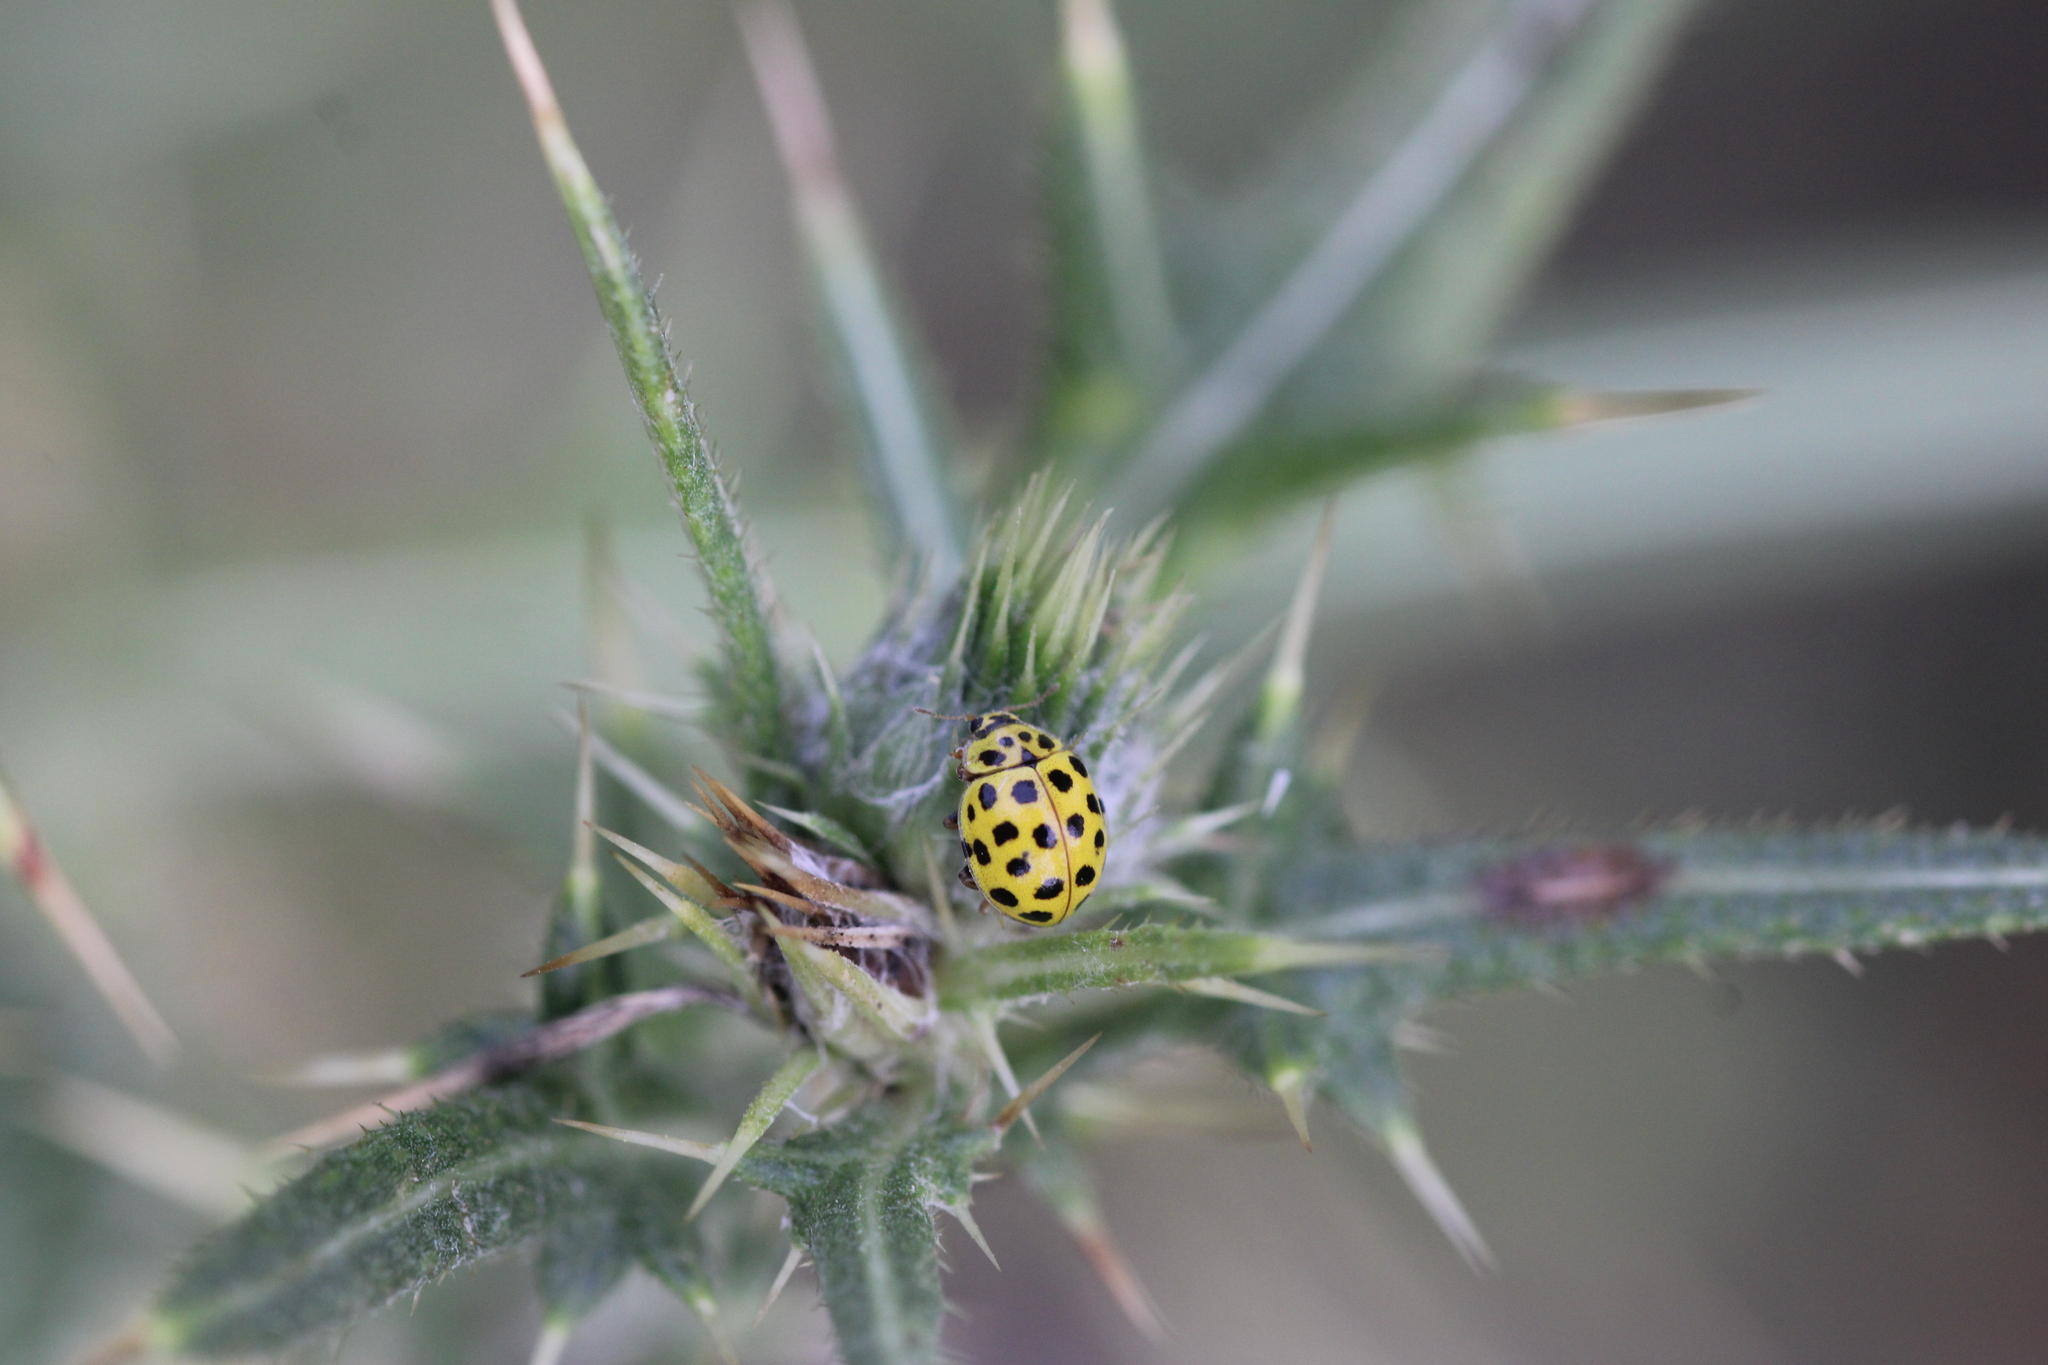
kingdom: Animalia
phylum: Arthropoda
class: Insecta
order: Coleoptera
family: Coccinellidae
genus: Psyllobora
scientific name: Psyllobora vigintiduopunctata
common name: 22-spot ladybird
